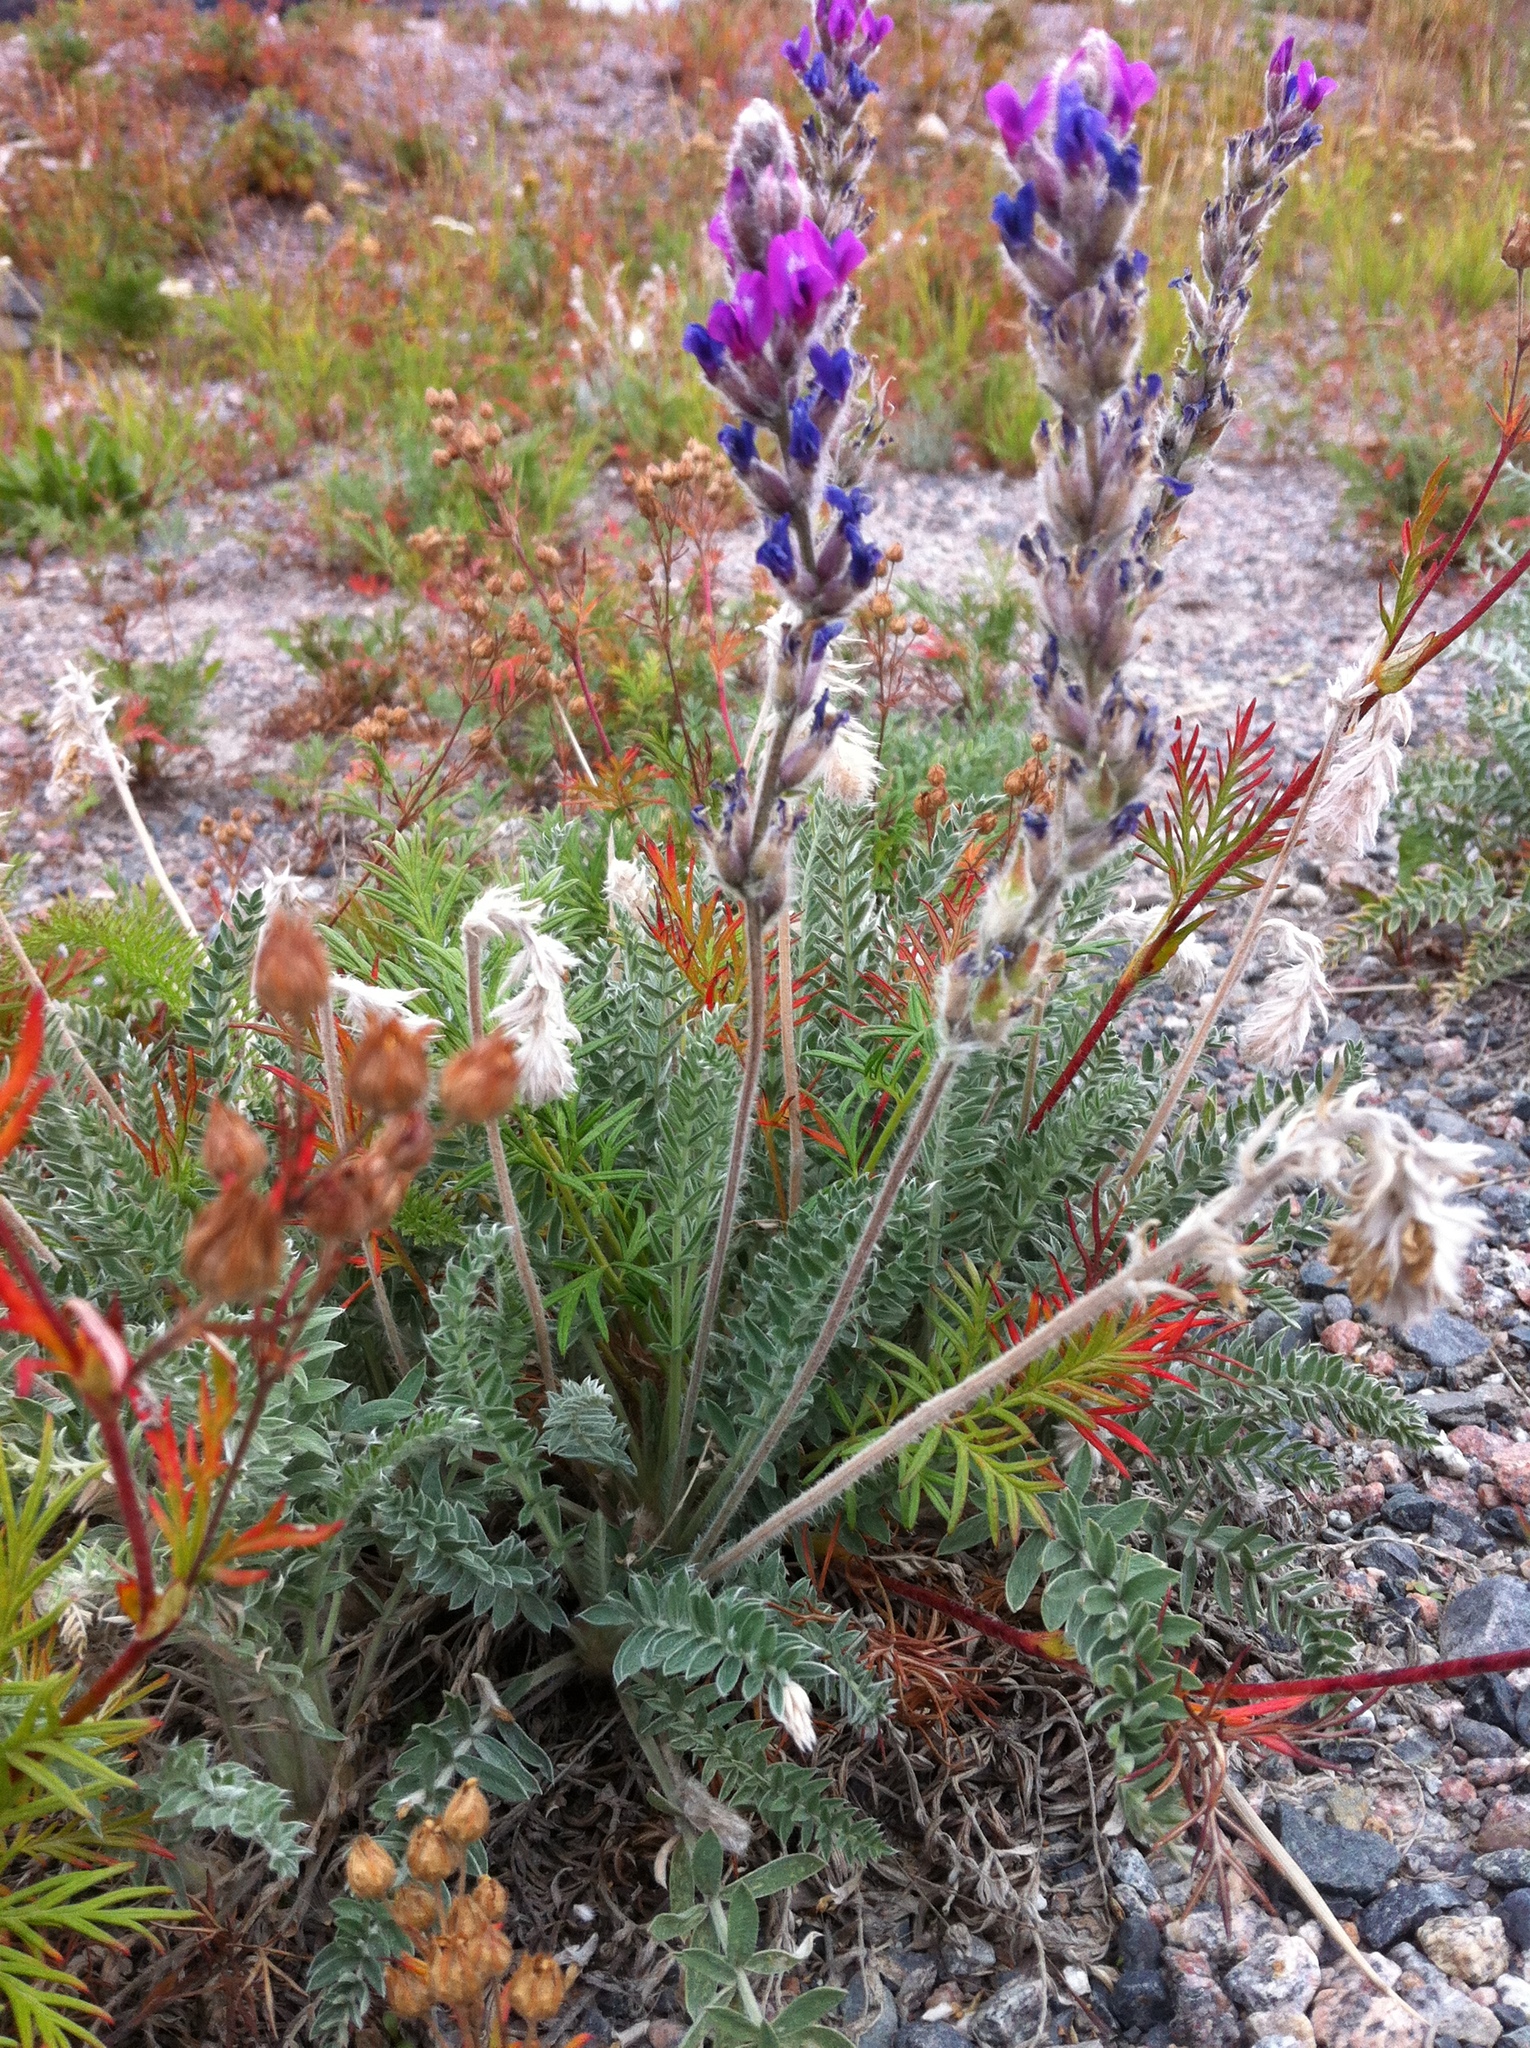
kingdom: Plantae
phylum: Tracheophyta
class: Magnoliopsida
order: Fabales
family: Fabaceae
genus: Oxytropis
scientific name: Oxytropis splendens
